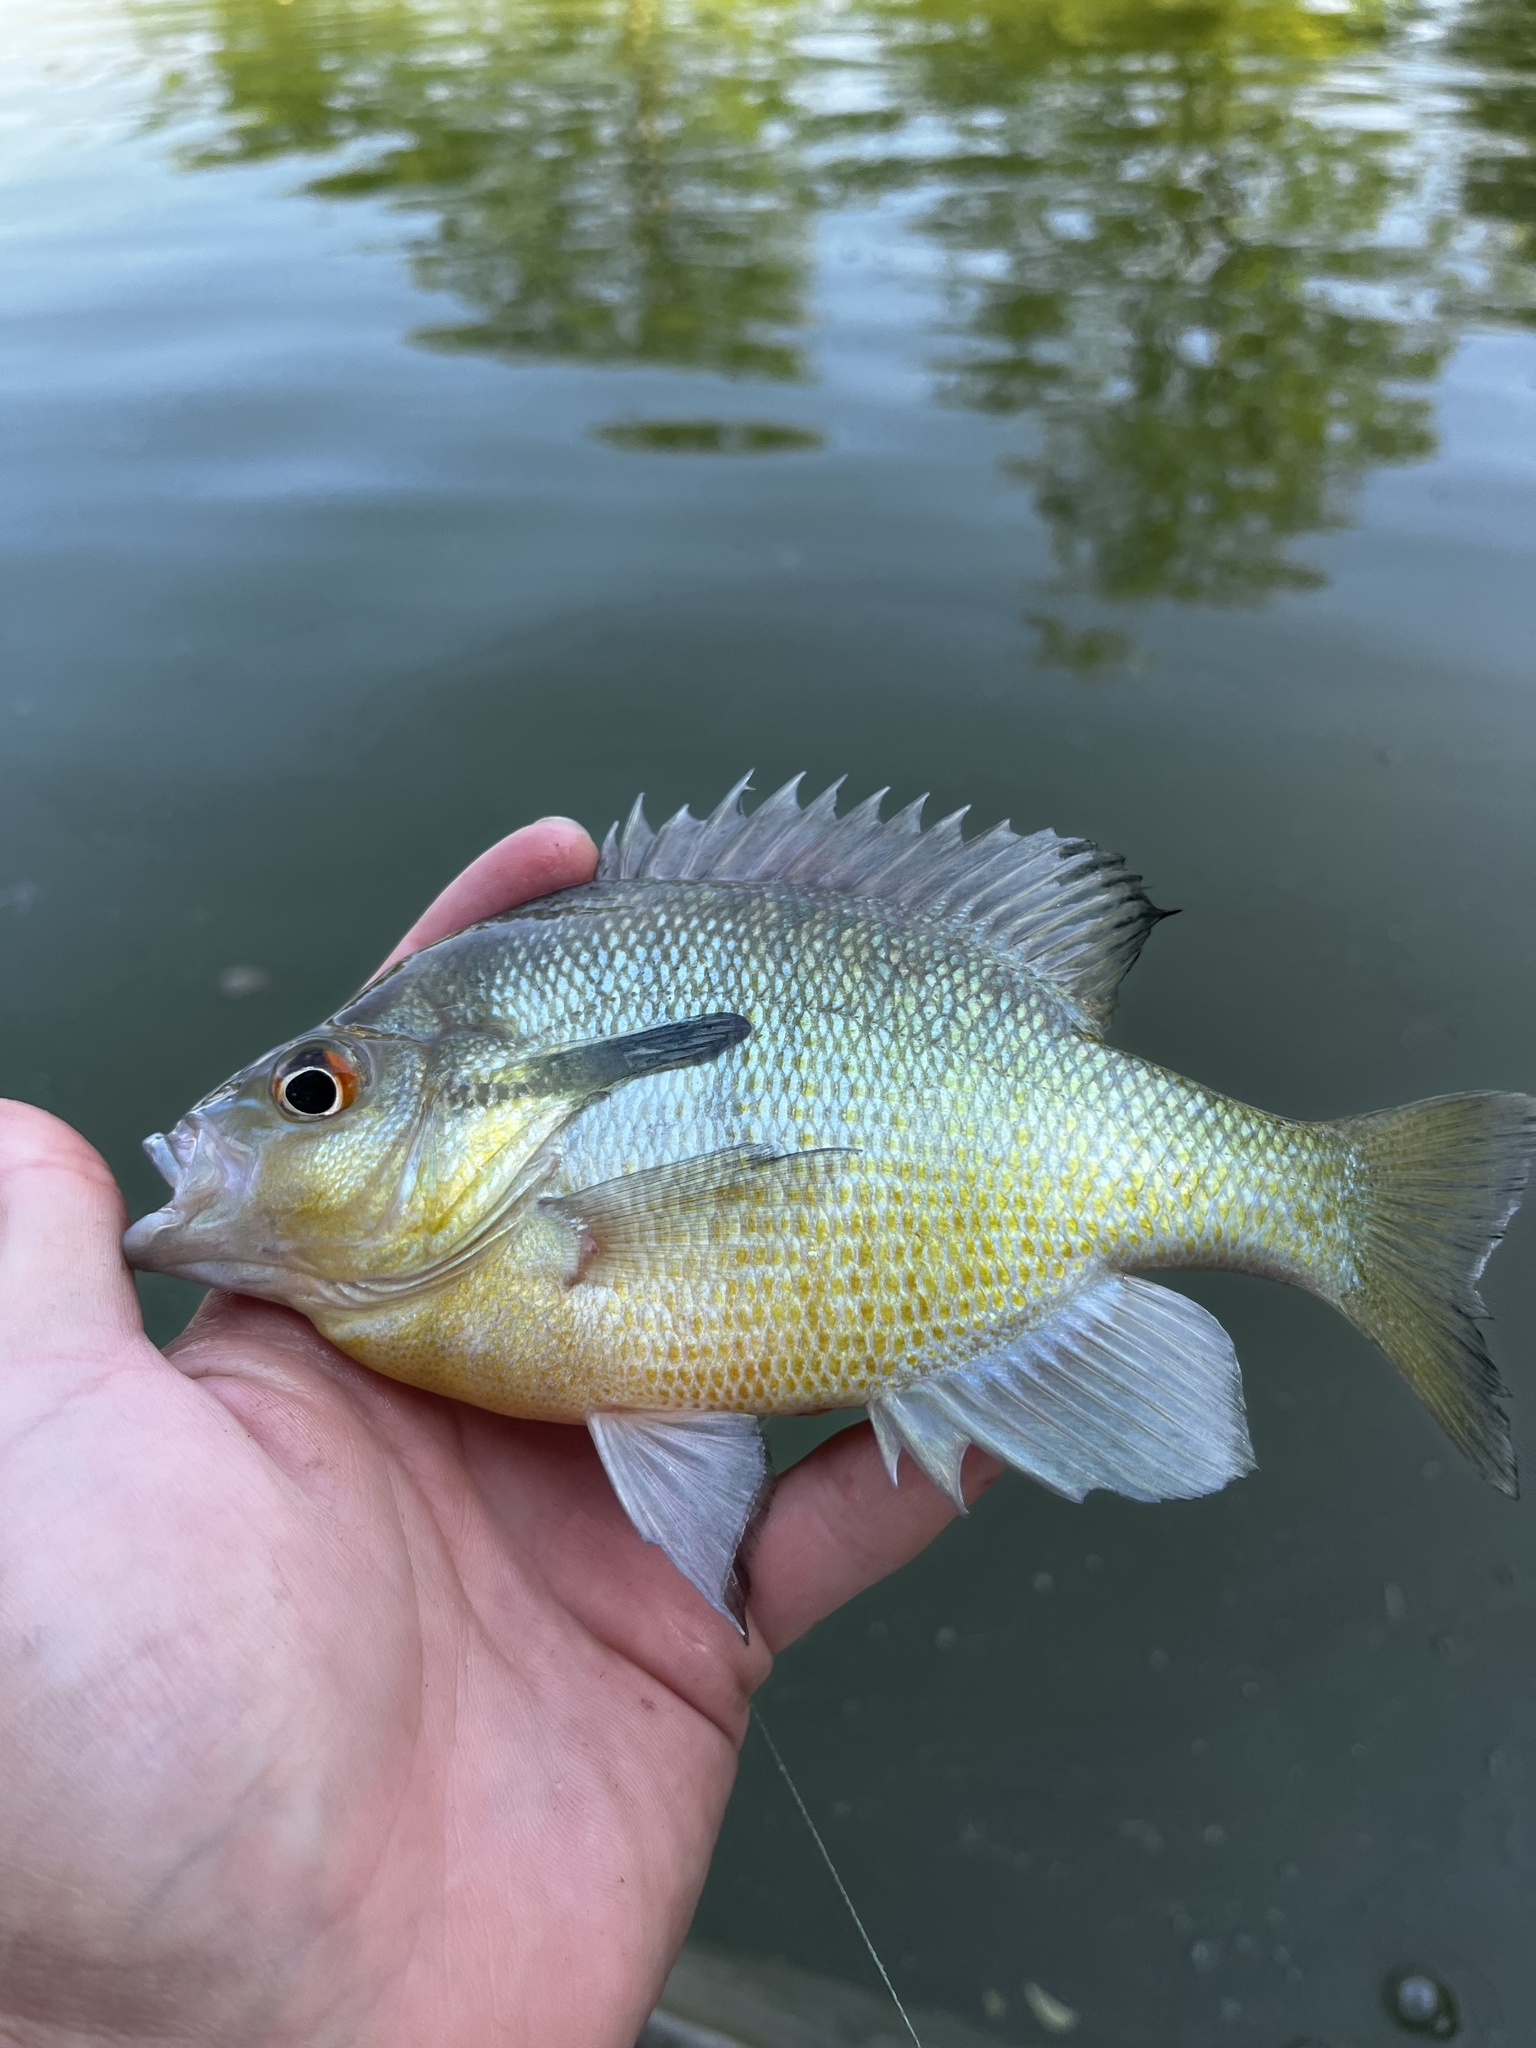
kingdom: Animalia
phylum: Chordata
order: Perciformes
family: Centrarchidae
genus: Lepomis
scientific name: Lepomis auritus
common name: Redbreast sunfish
